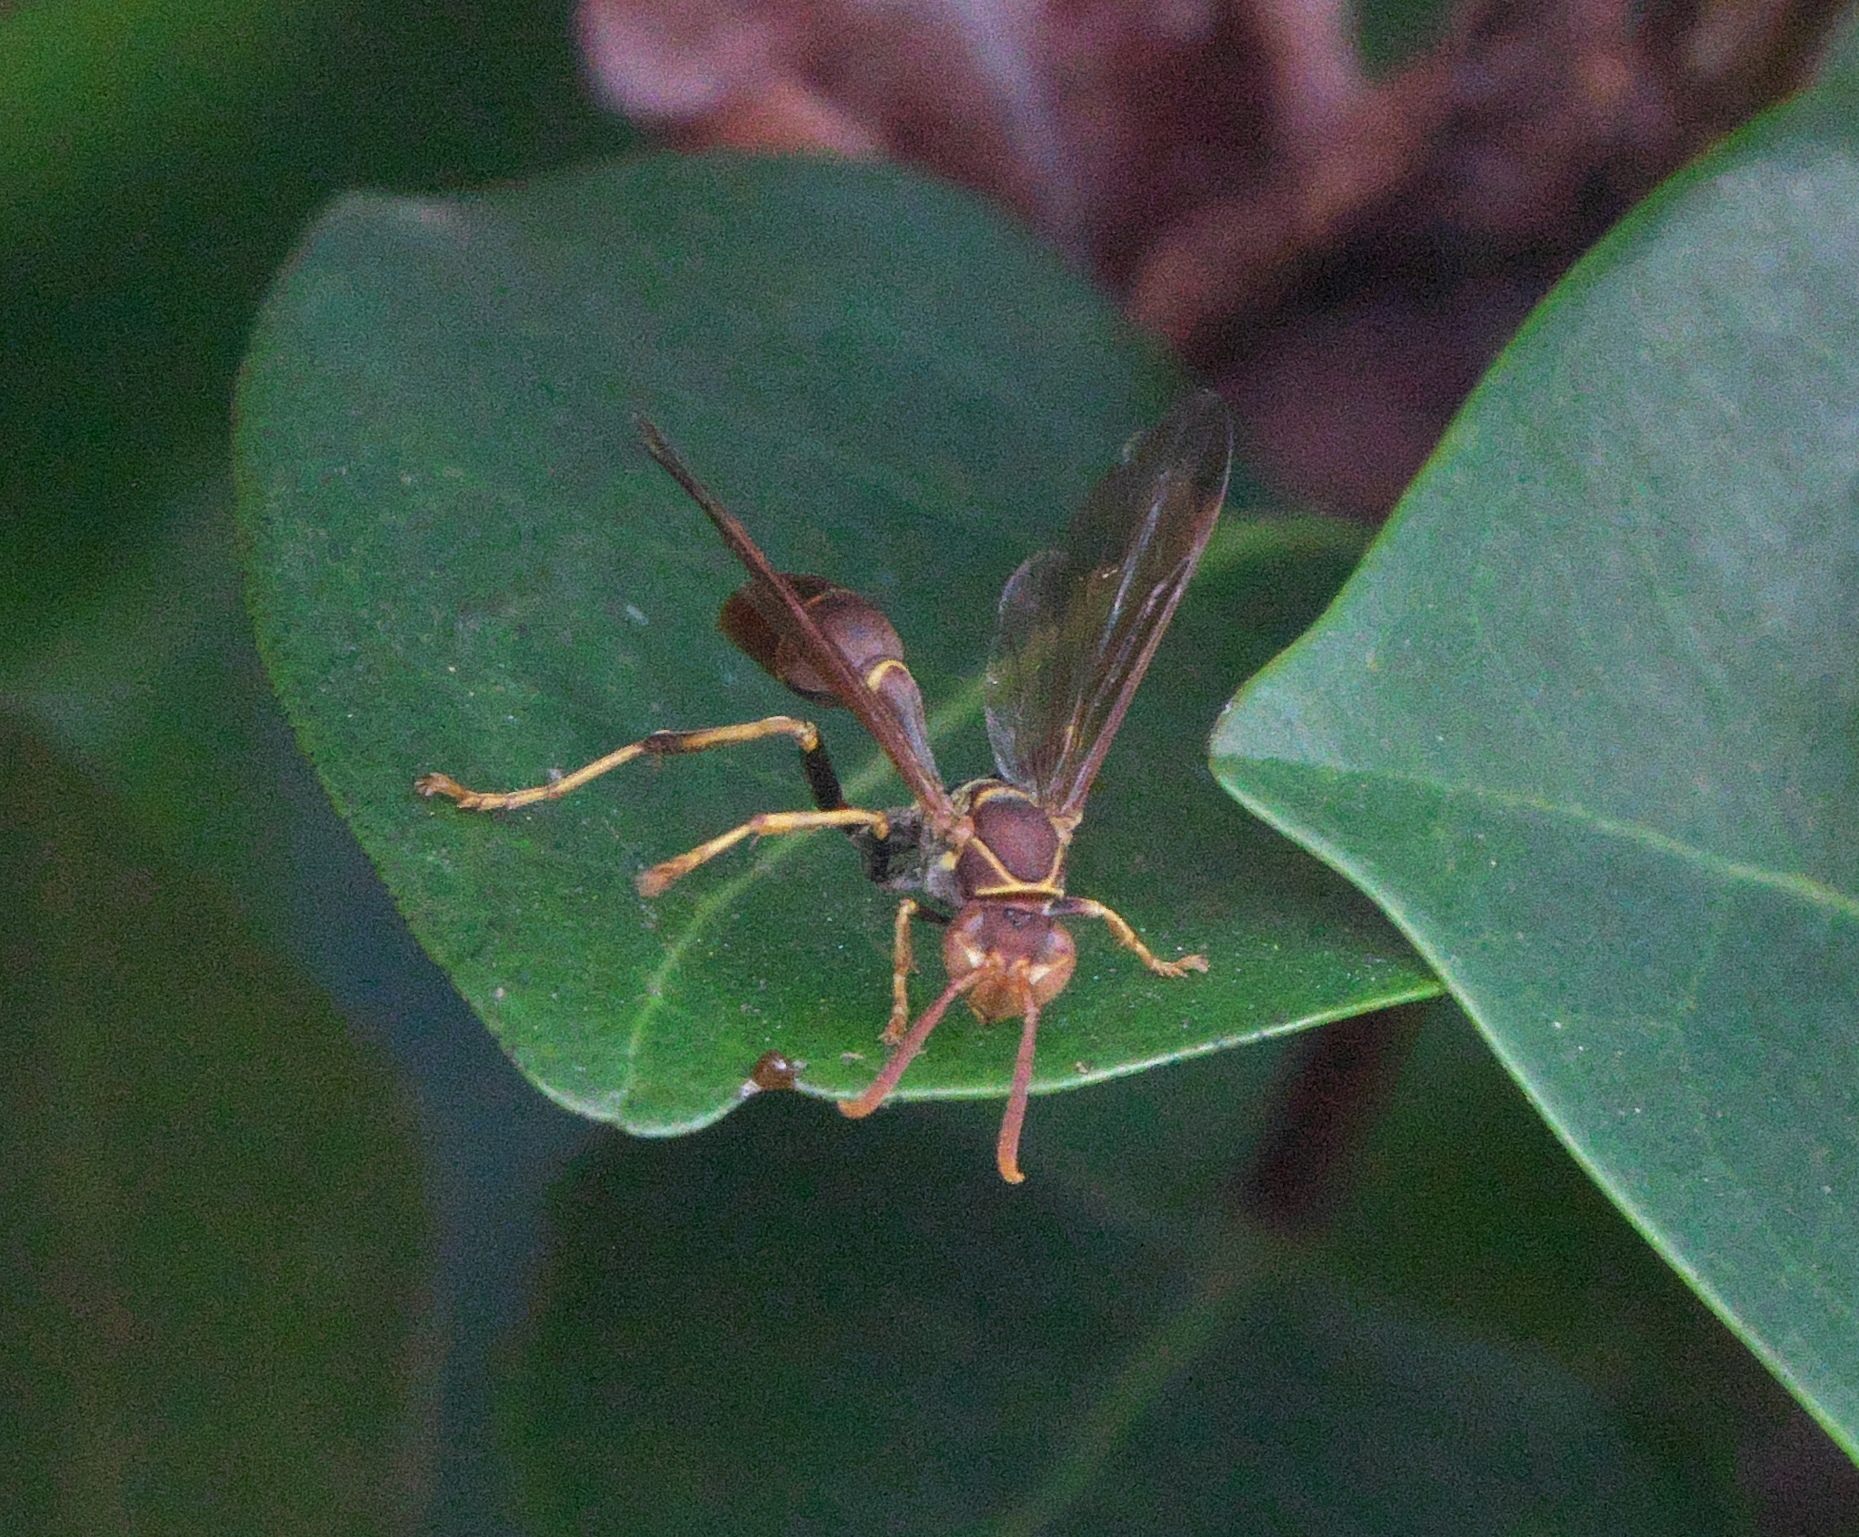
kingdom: Animalia
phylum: Arthropoda
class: Insecta
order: Hymenoptera
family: Vespidae
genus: Mischocyttarus
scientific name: Mischocyttarus mexicanus
